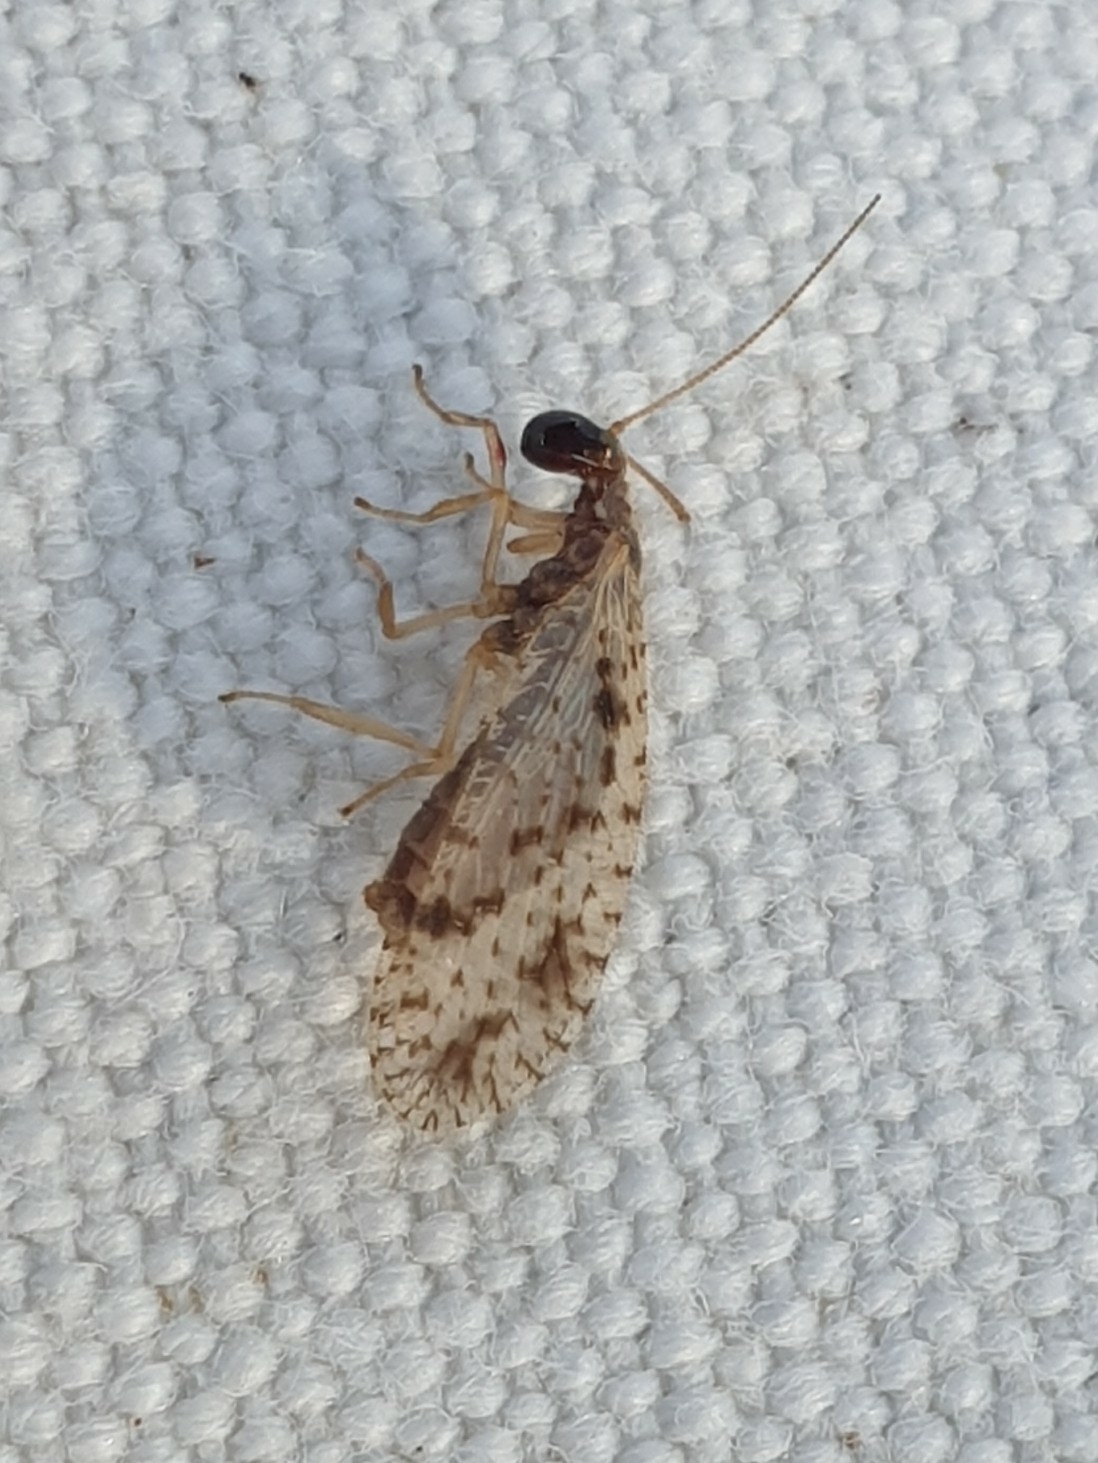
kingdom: Animalia
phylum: Arthropoda
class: Insecta
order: Neuroptera
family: Hemerobiidae
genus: Micromus
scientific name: Micromus variegatus
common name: Brown lacewing
